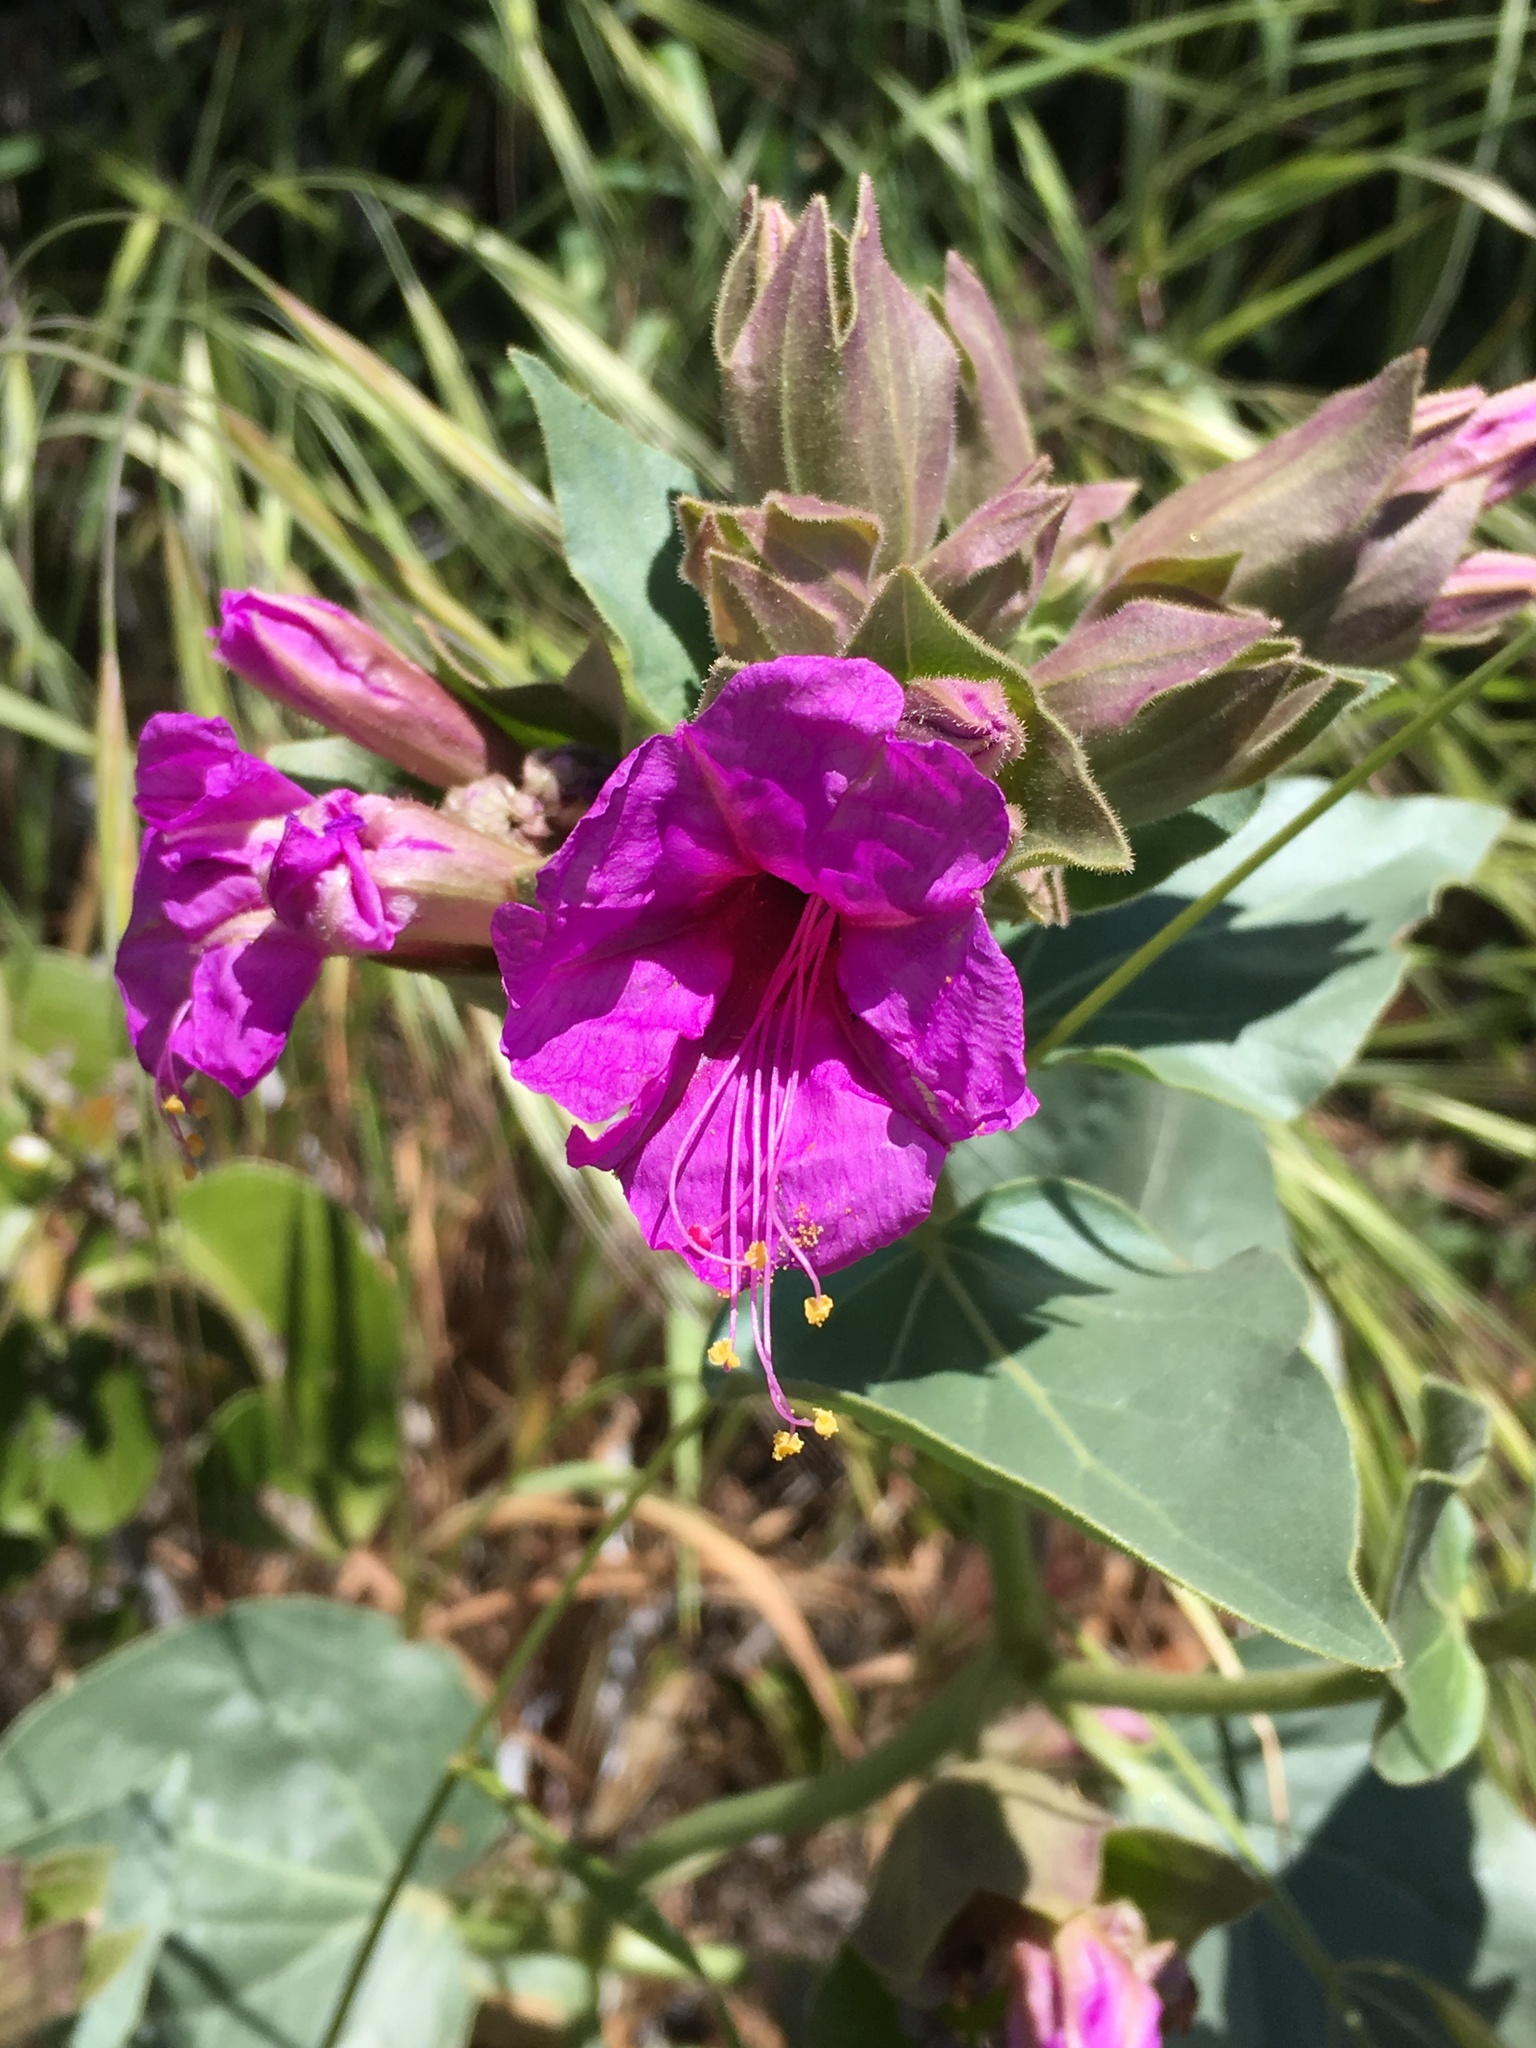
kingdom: Plantae
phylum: Tracheophyta
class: Magnoliopsida
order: Caryophyllales
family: Nyctaginaceae
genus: Mirabilis
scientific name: Mirabilis multiflora
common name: Froebel's four-o'clock
